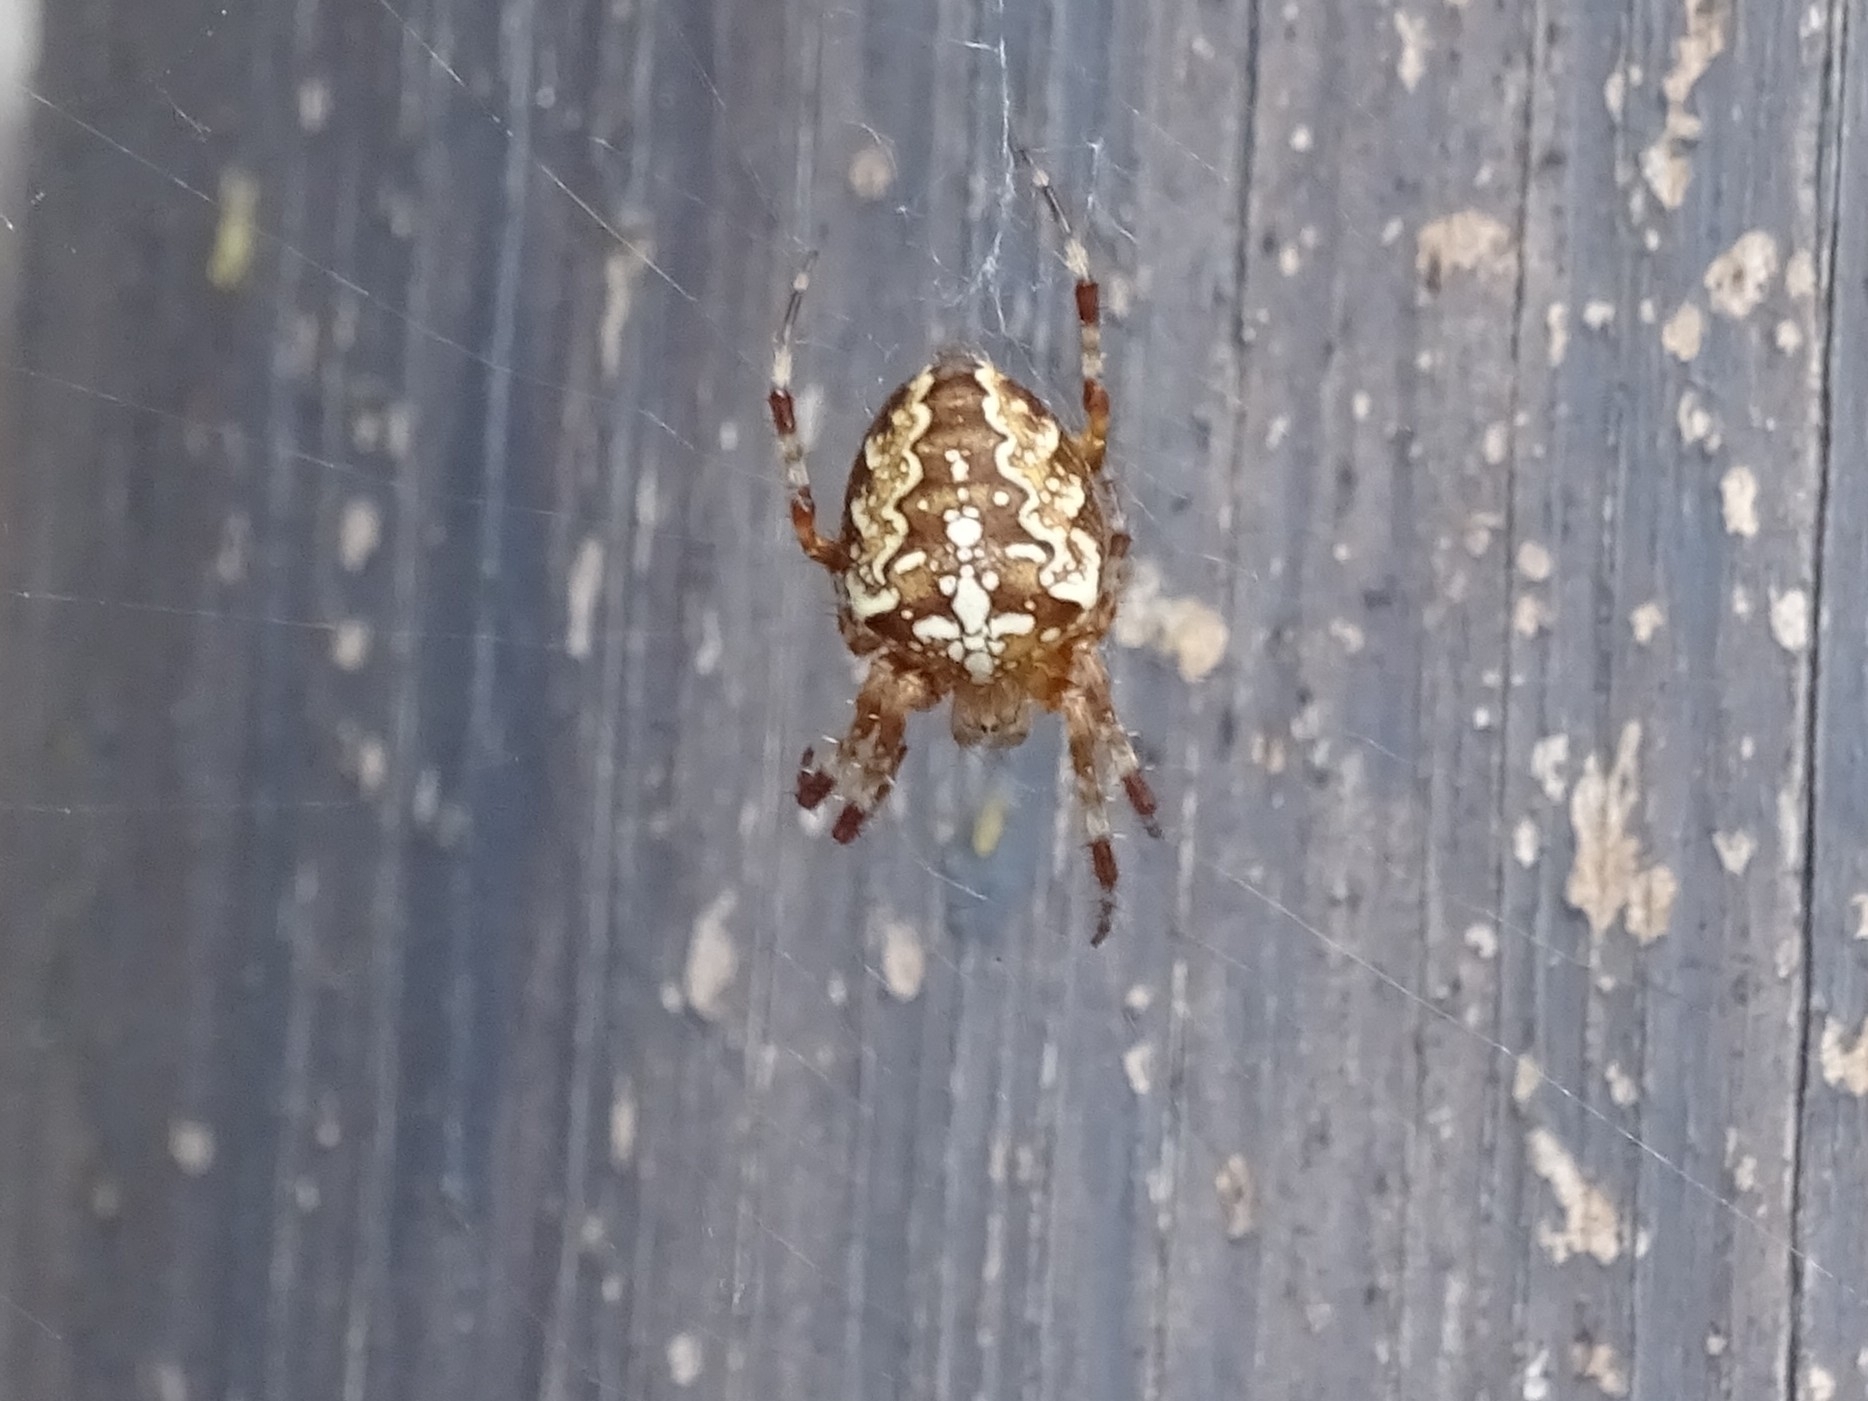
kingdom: Animalia
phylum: Arthropoda
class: Arachnida
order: Araneae
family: Araneidae
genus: Araneus
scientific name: Araneus diadematus
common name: Cross orbweaver
